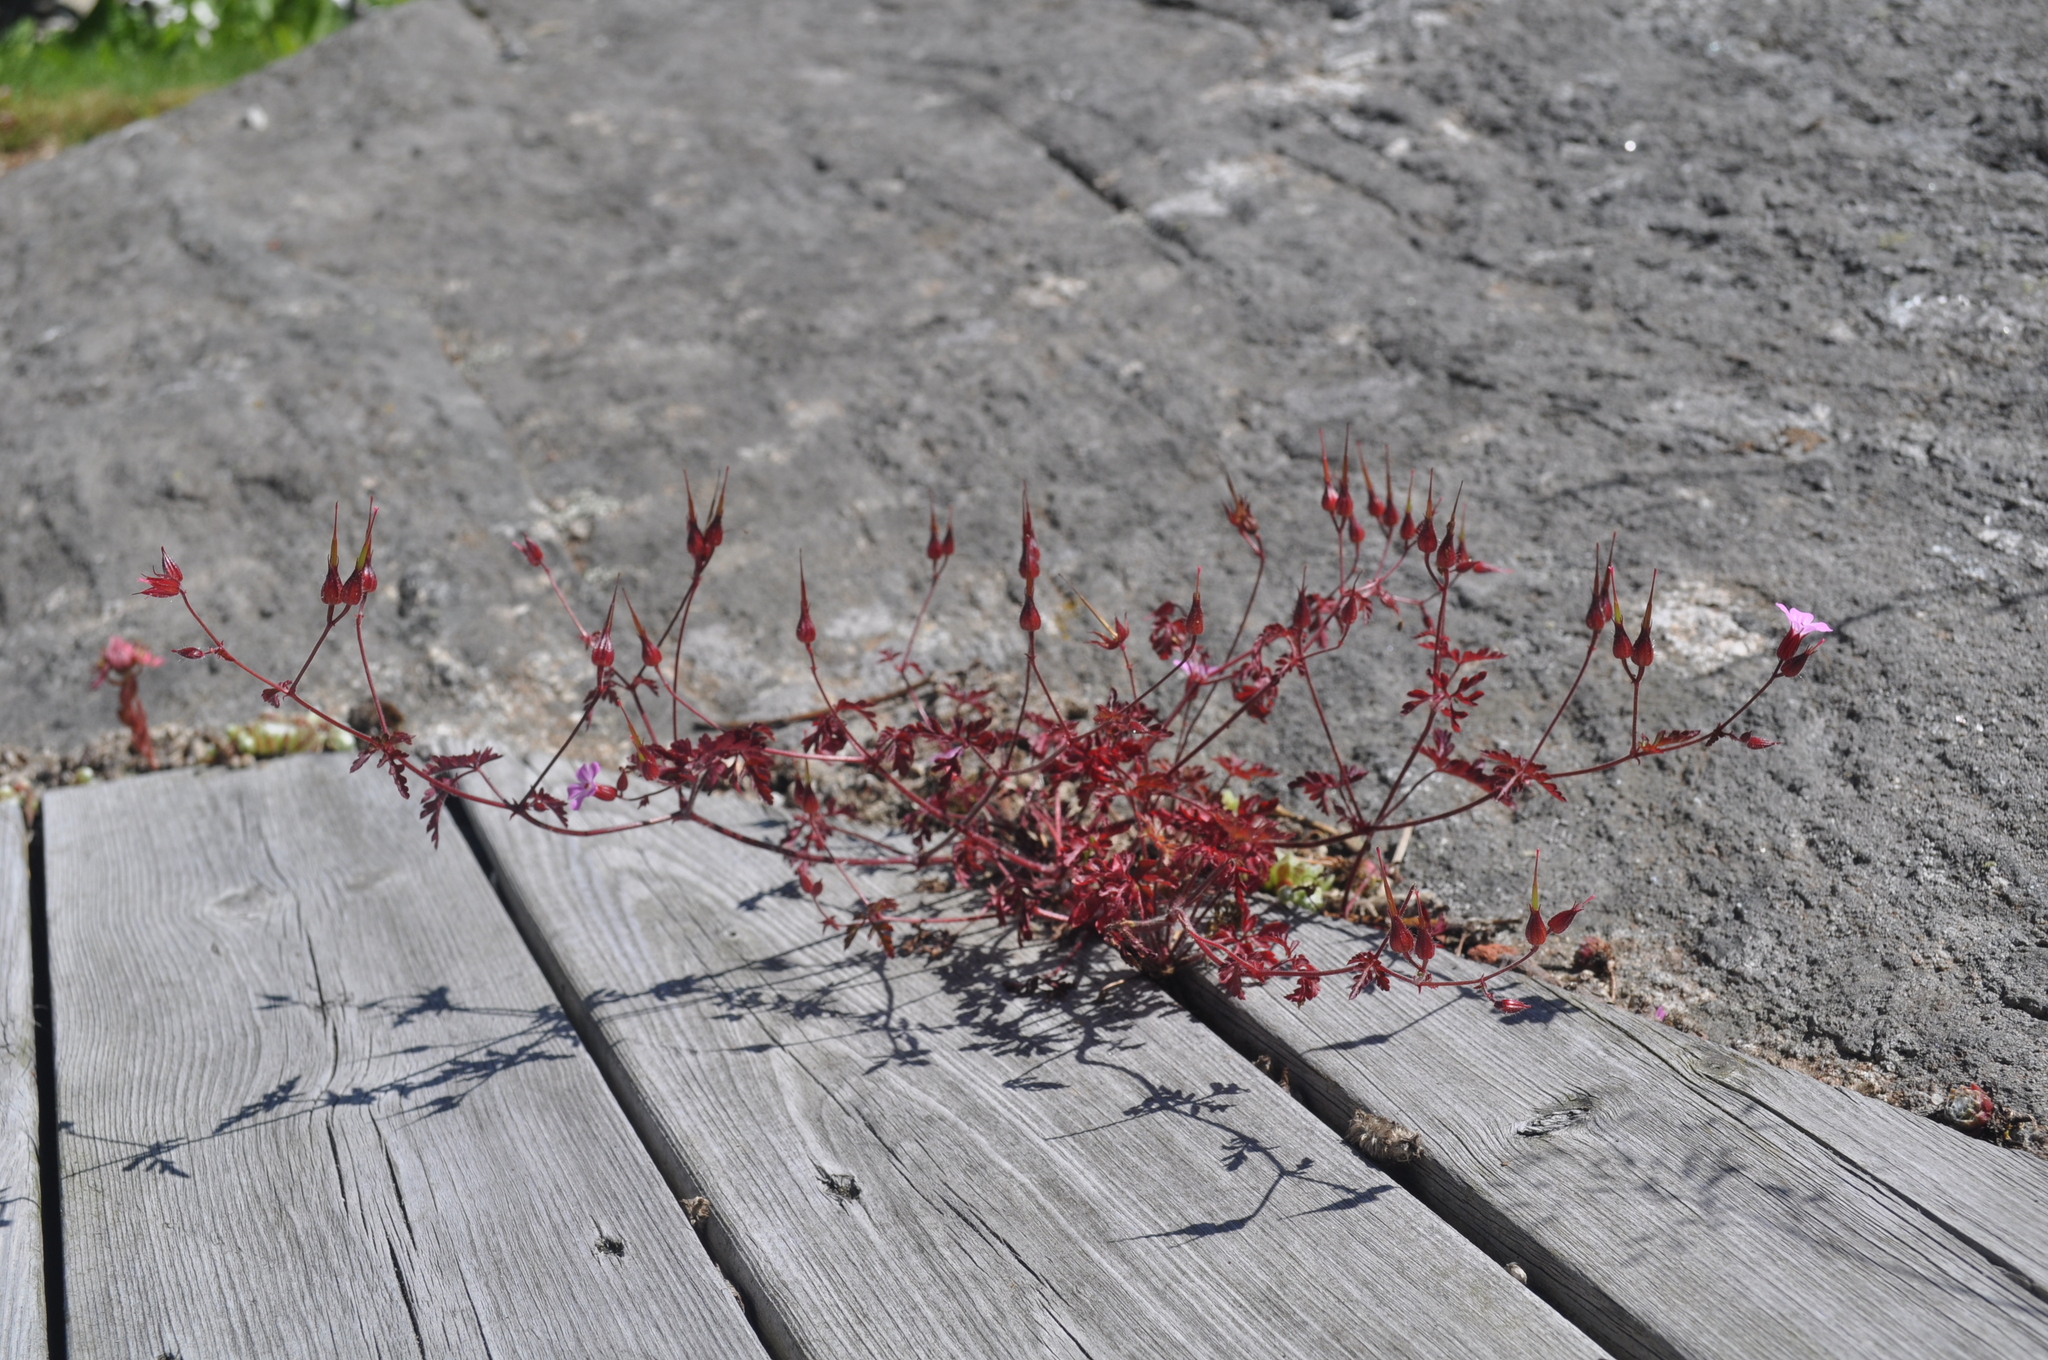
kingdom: Plantae
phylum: Tracheophyta
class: Magnoliopsida
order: Geraniales
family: Geraniaceae
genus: Geranium
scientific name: Geranium robertianum
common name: Herb-robert
